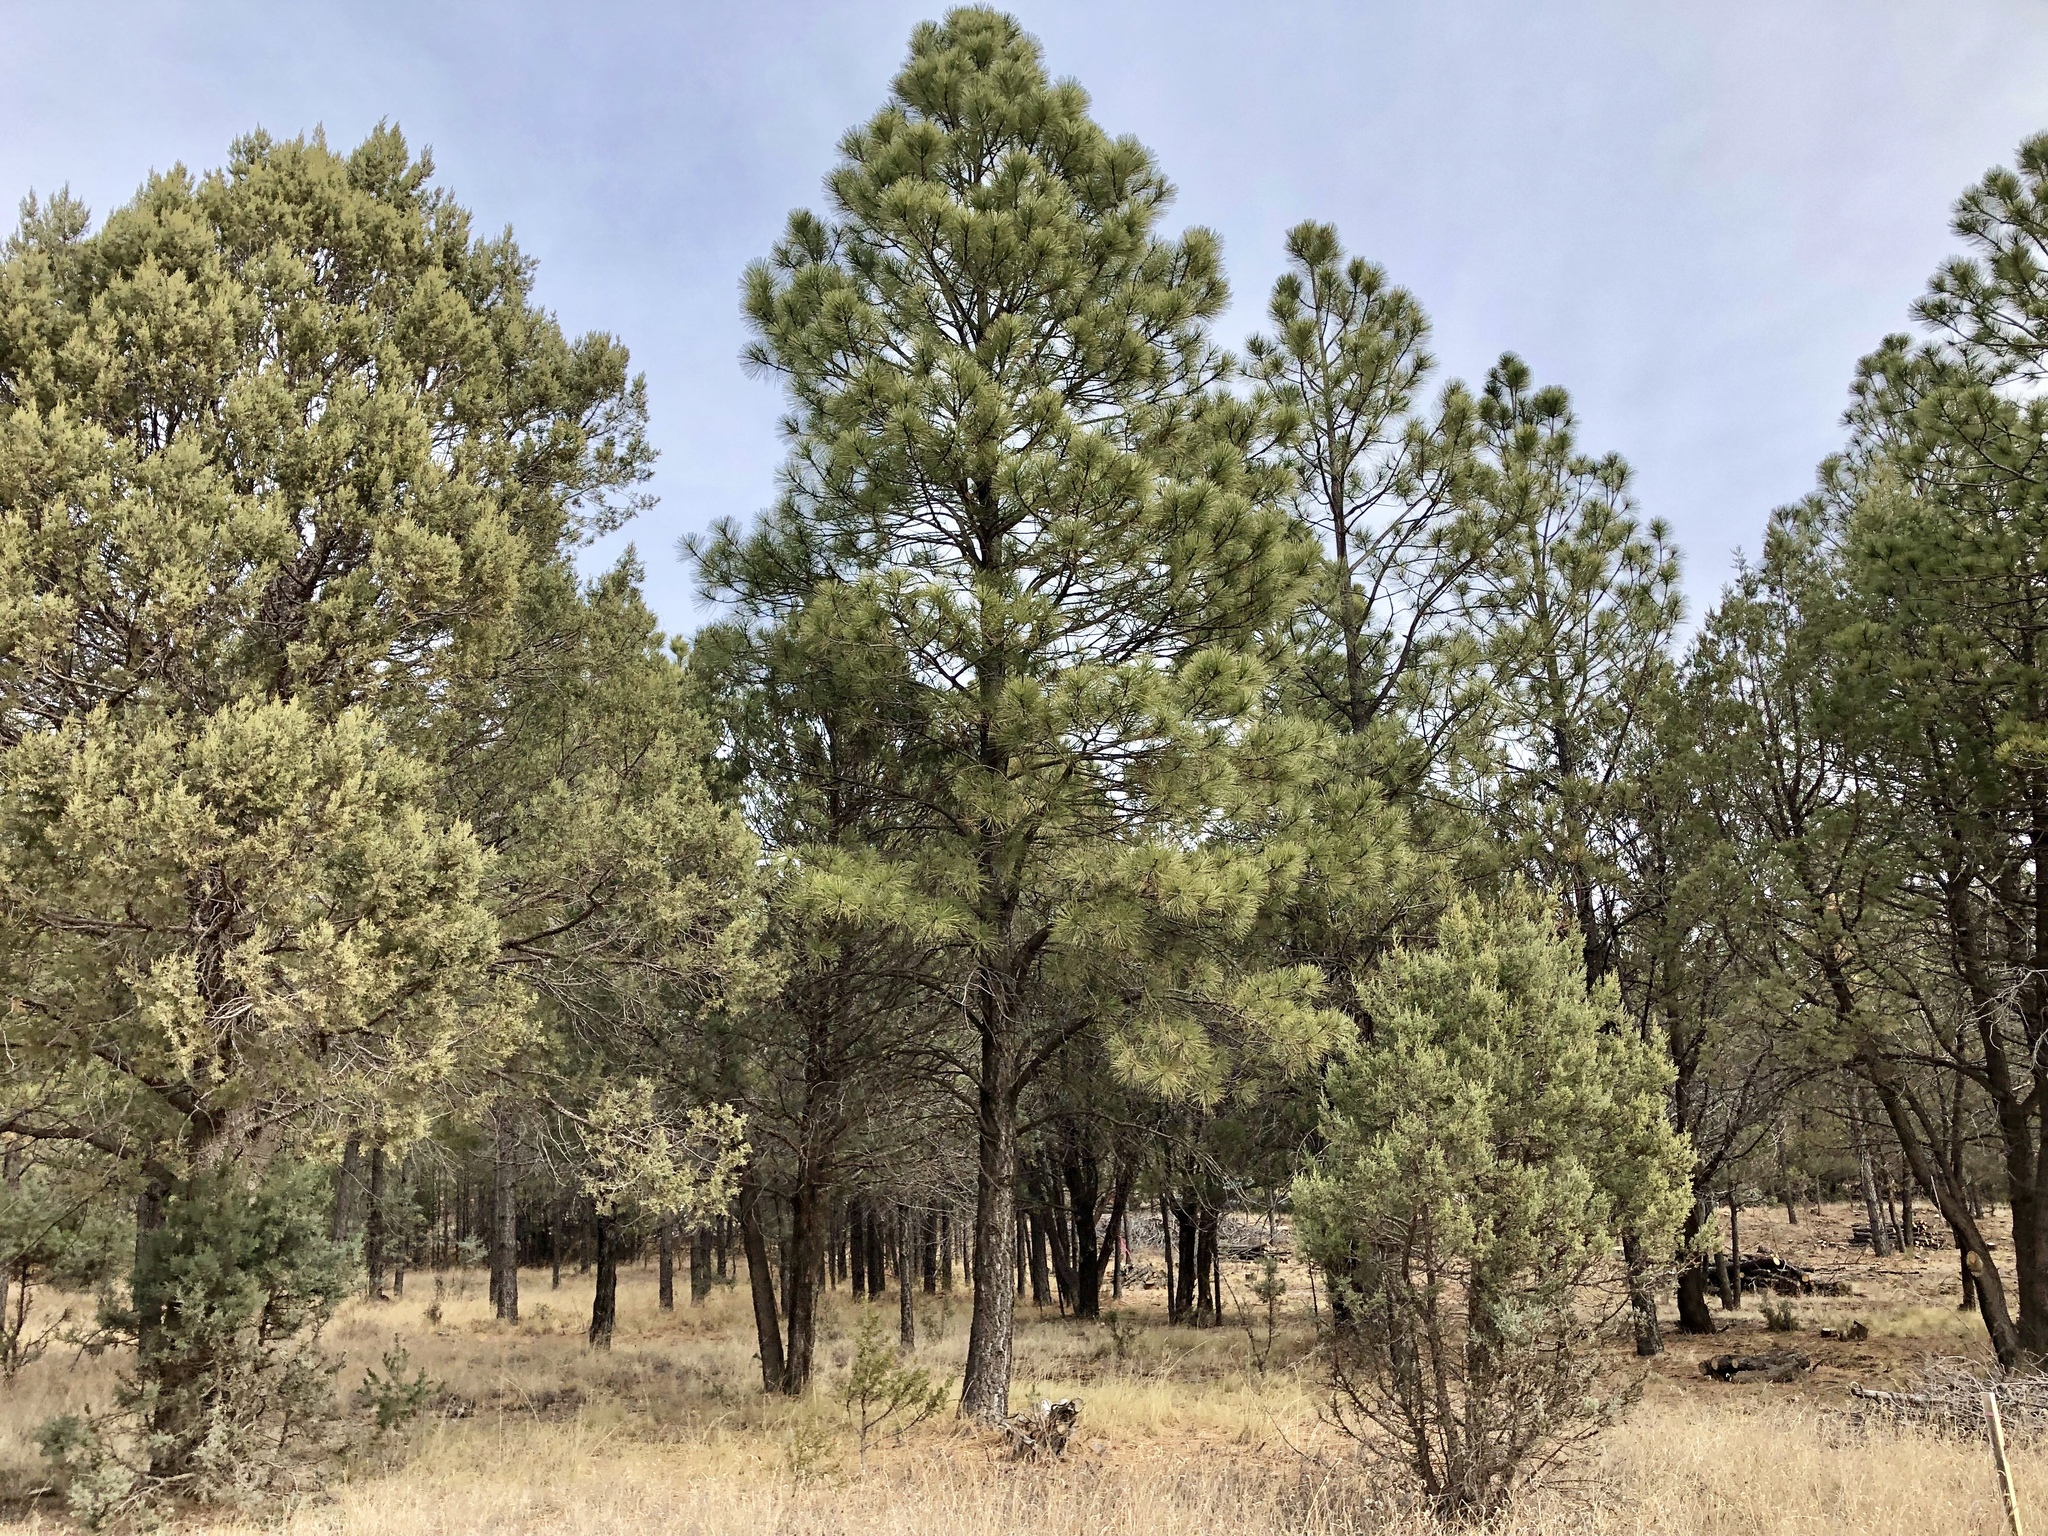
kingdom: Plantae
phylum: Tracheophyta
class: Pinopsida
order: Pinales
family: Pinaceae
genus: Pinus
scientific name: Pinus ponderosa
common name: Western yellow-pine
